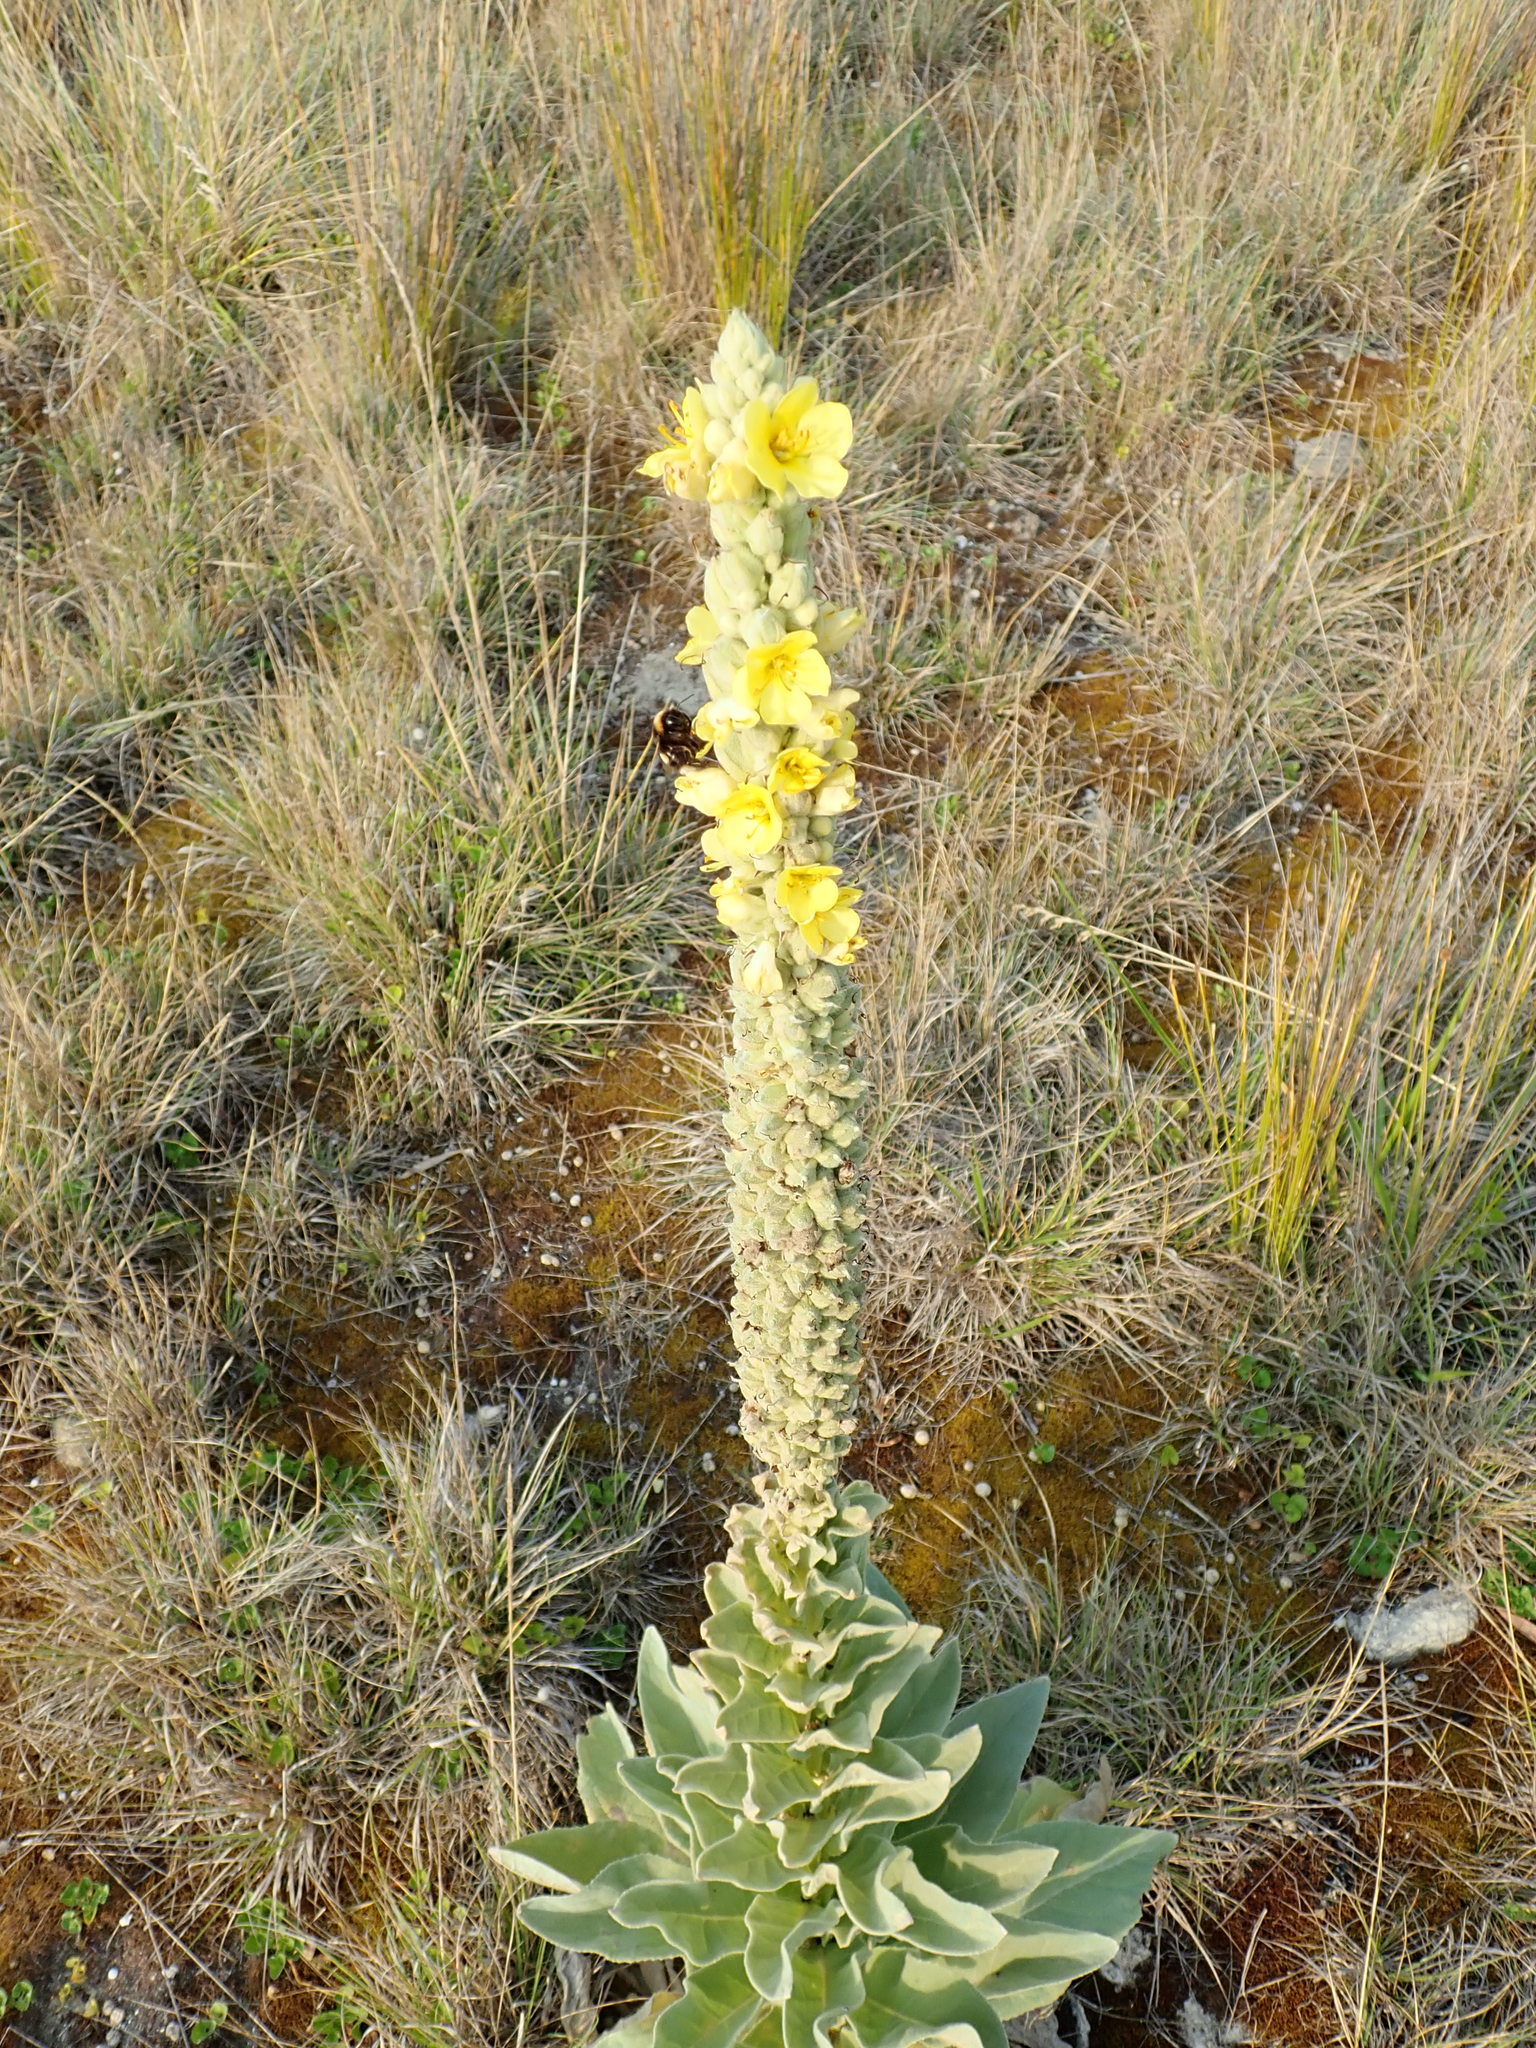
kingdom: Plantae
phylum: Tracheophyta
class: Magnoliopsida
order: Lamiales
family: Scrophulariaceae
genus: Verbascum
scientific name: Verbascum thapsus
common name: Common mullein
